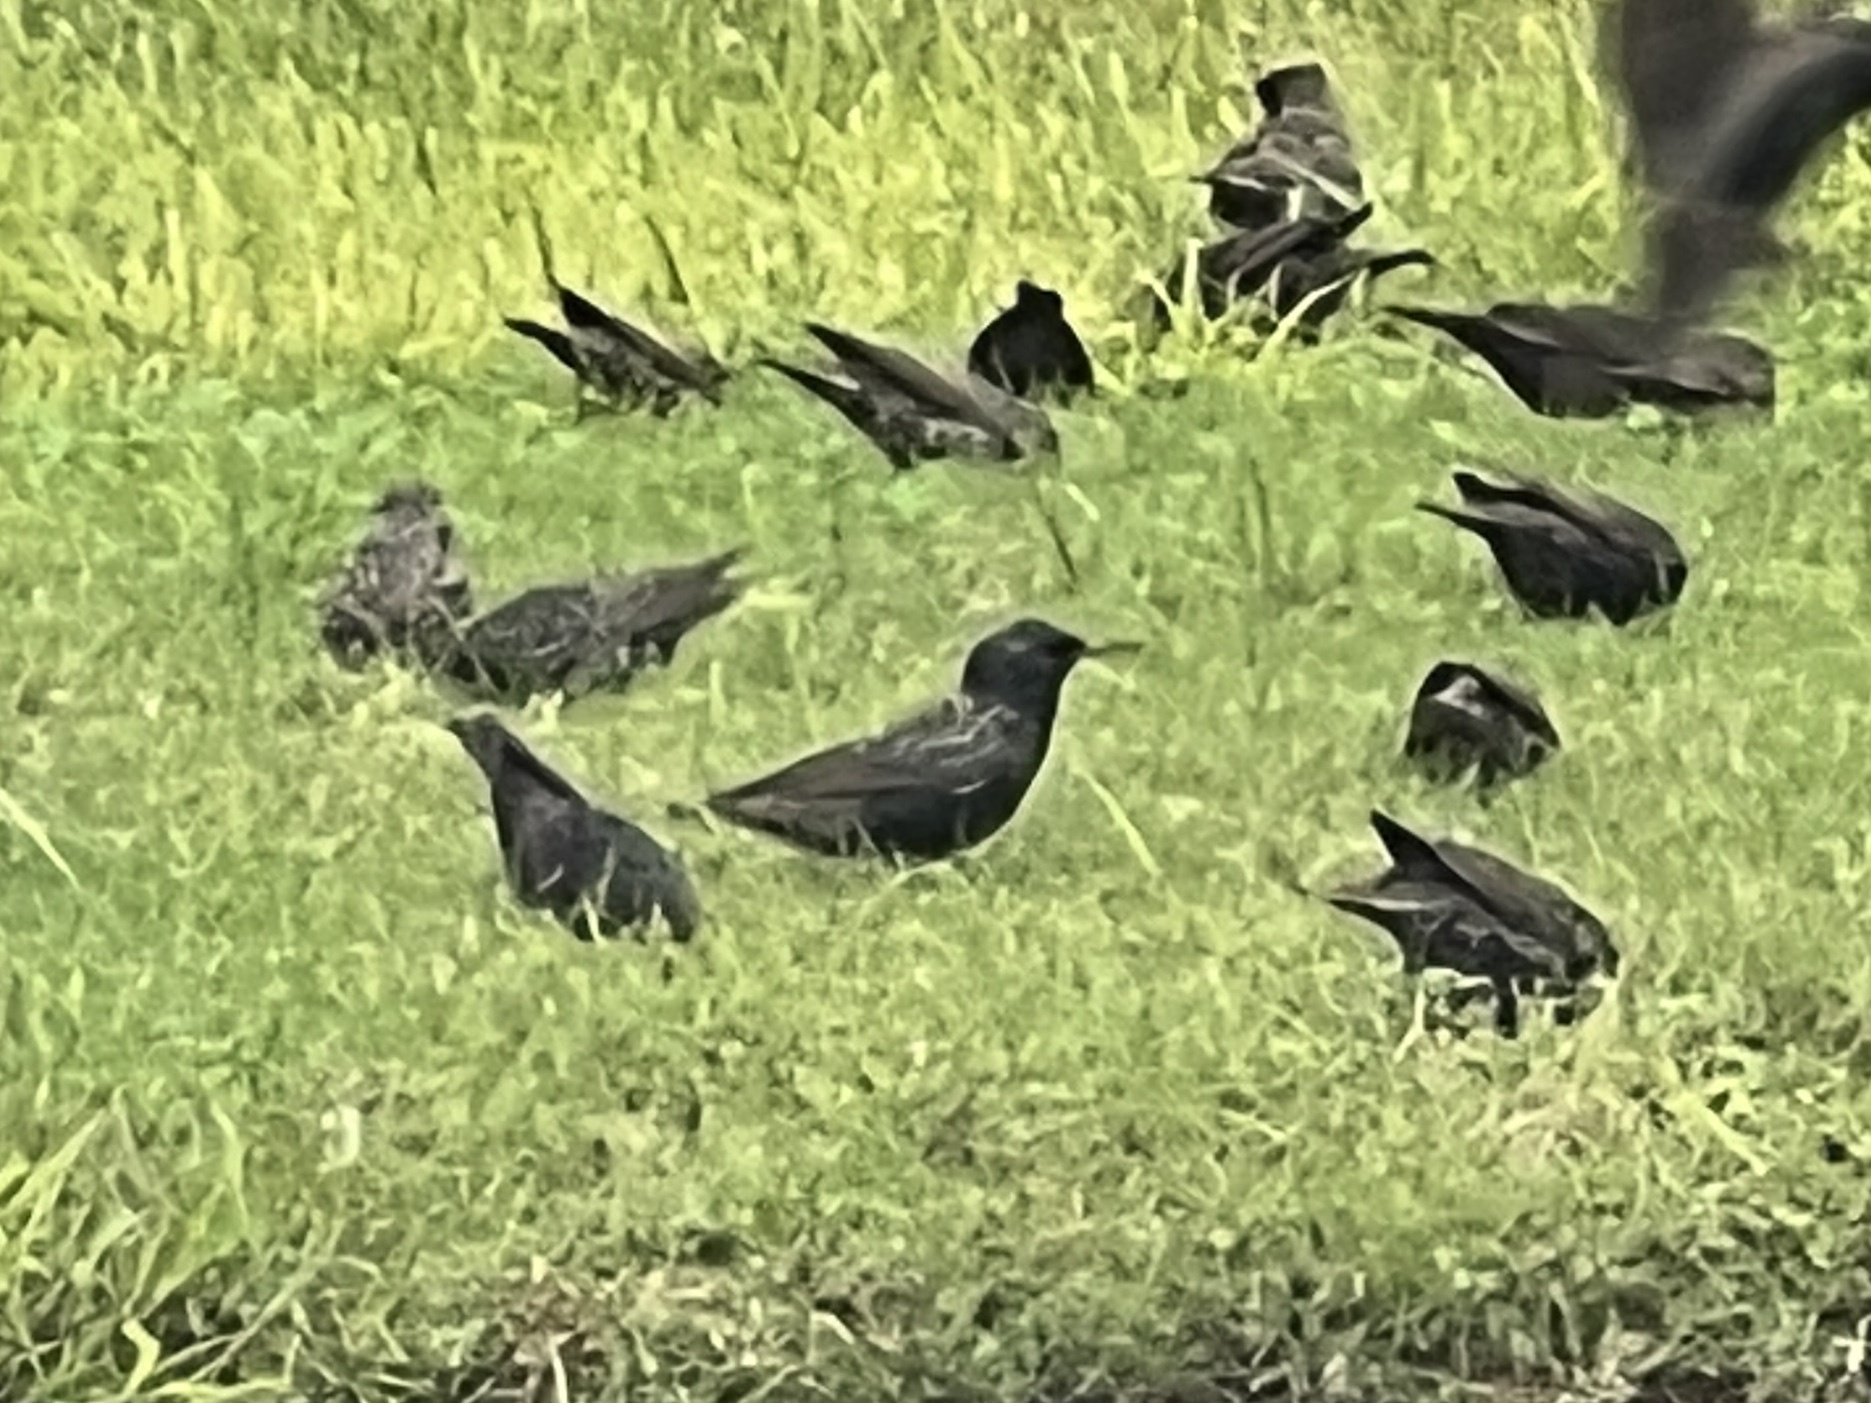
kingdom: Animalia
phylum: Chordata
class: Aves
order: Passeriformes
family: Sturnidae
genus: Sturnus
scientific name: Sturnus vulgaris
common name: Common starling
